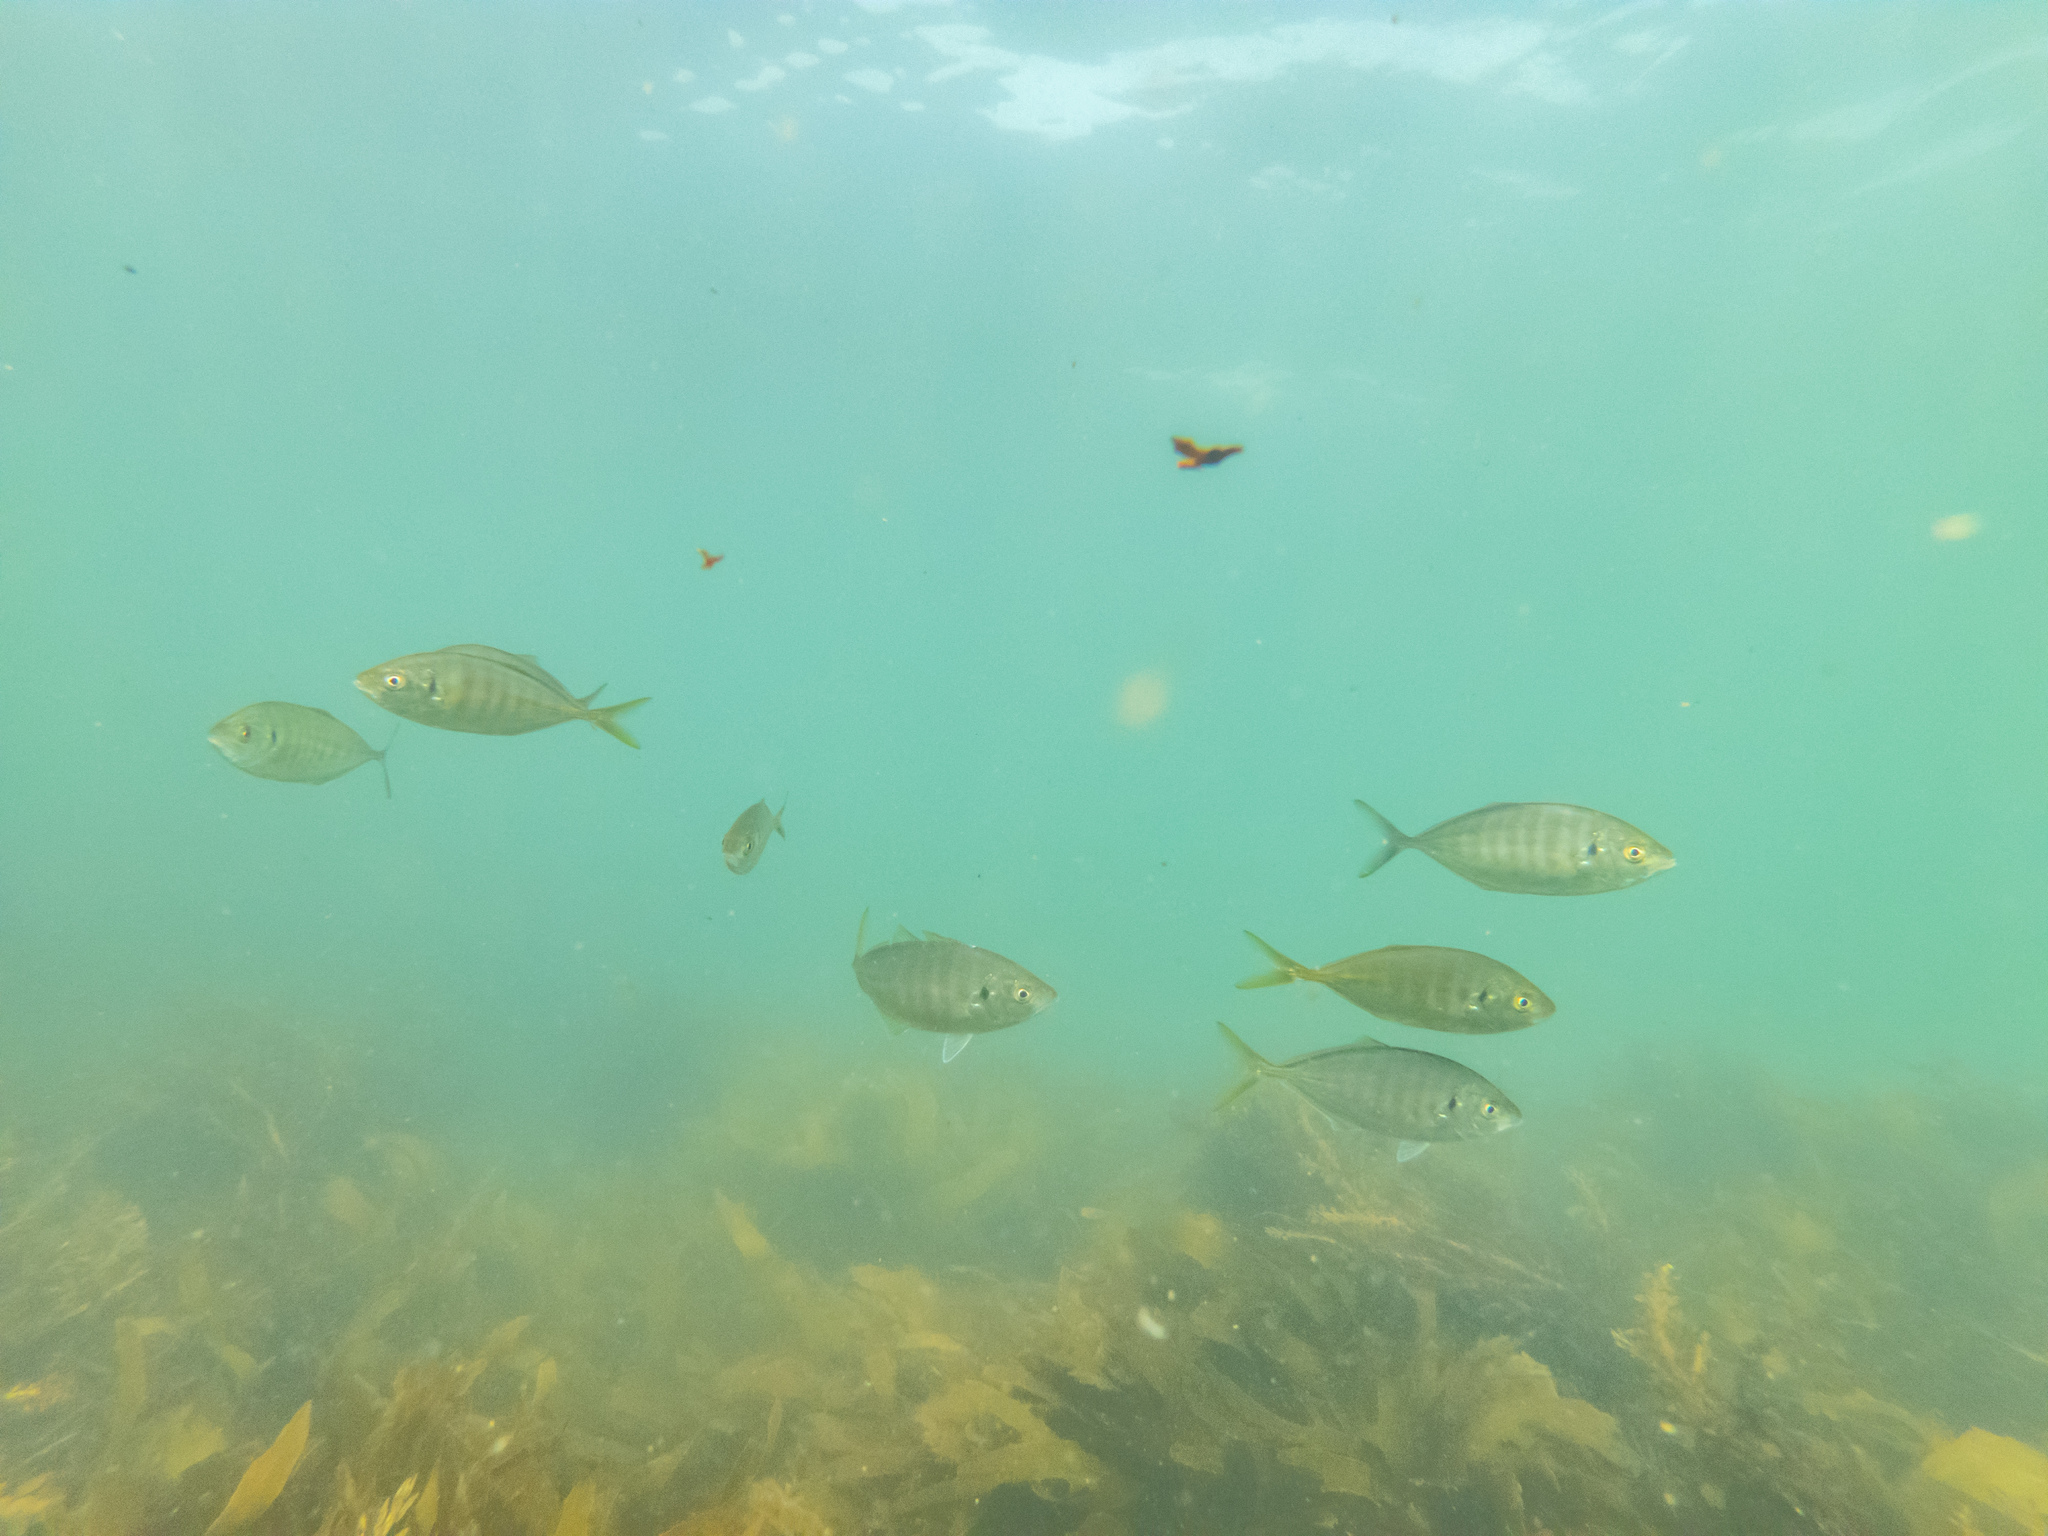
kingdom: Animalia
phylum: Chordata
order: Perciformes
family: Carangidae
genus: Pseudocaranx
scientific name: Pseudocaranx dentex
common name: White trevally
